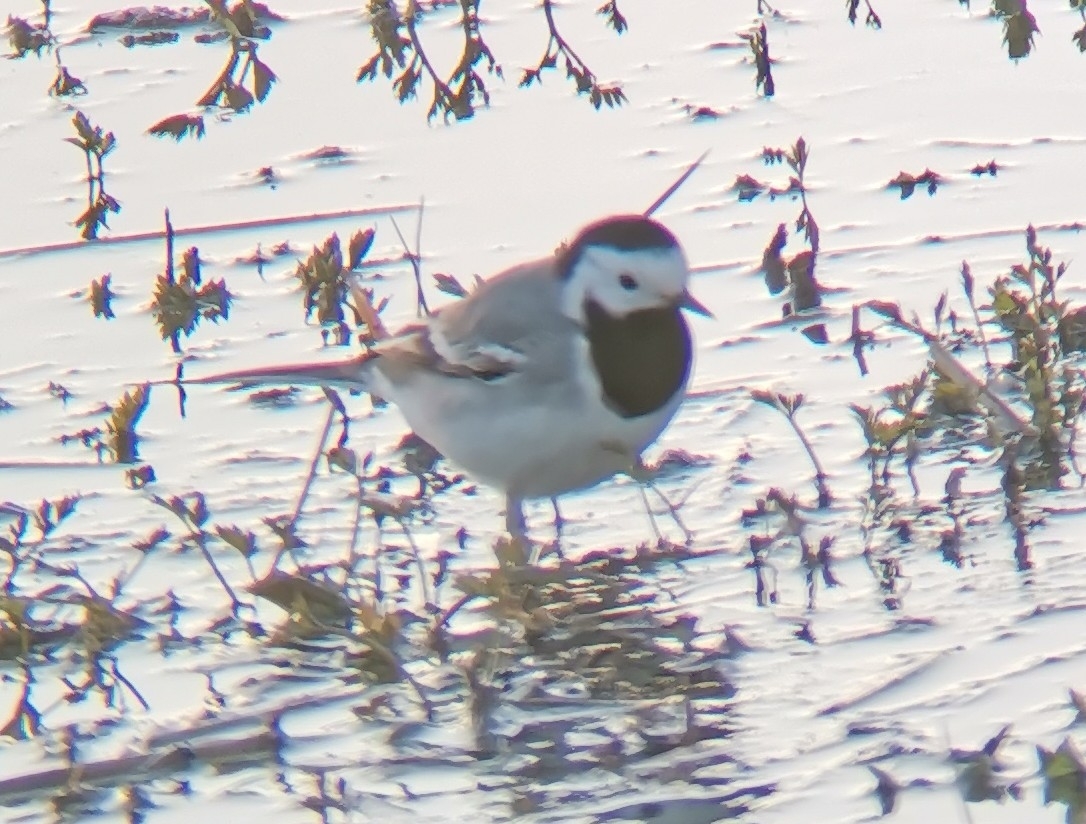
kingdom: Animalia
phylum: Chordata
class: Aves
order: Passeriformes
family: Motacillidae
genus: Motacilla
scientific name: Motacilla alba
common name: White wagtail
